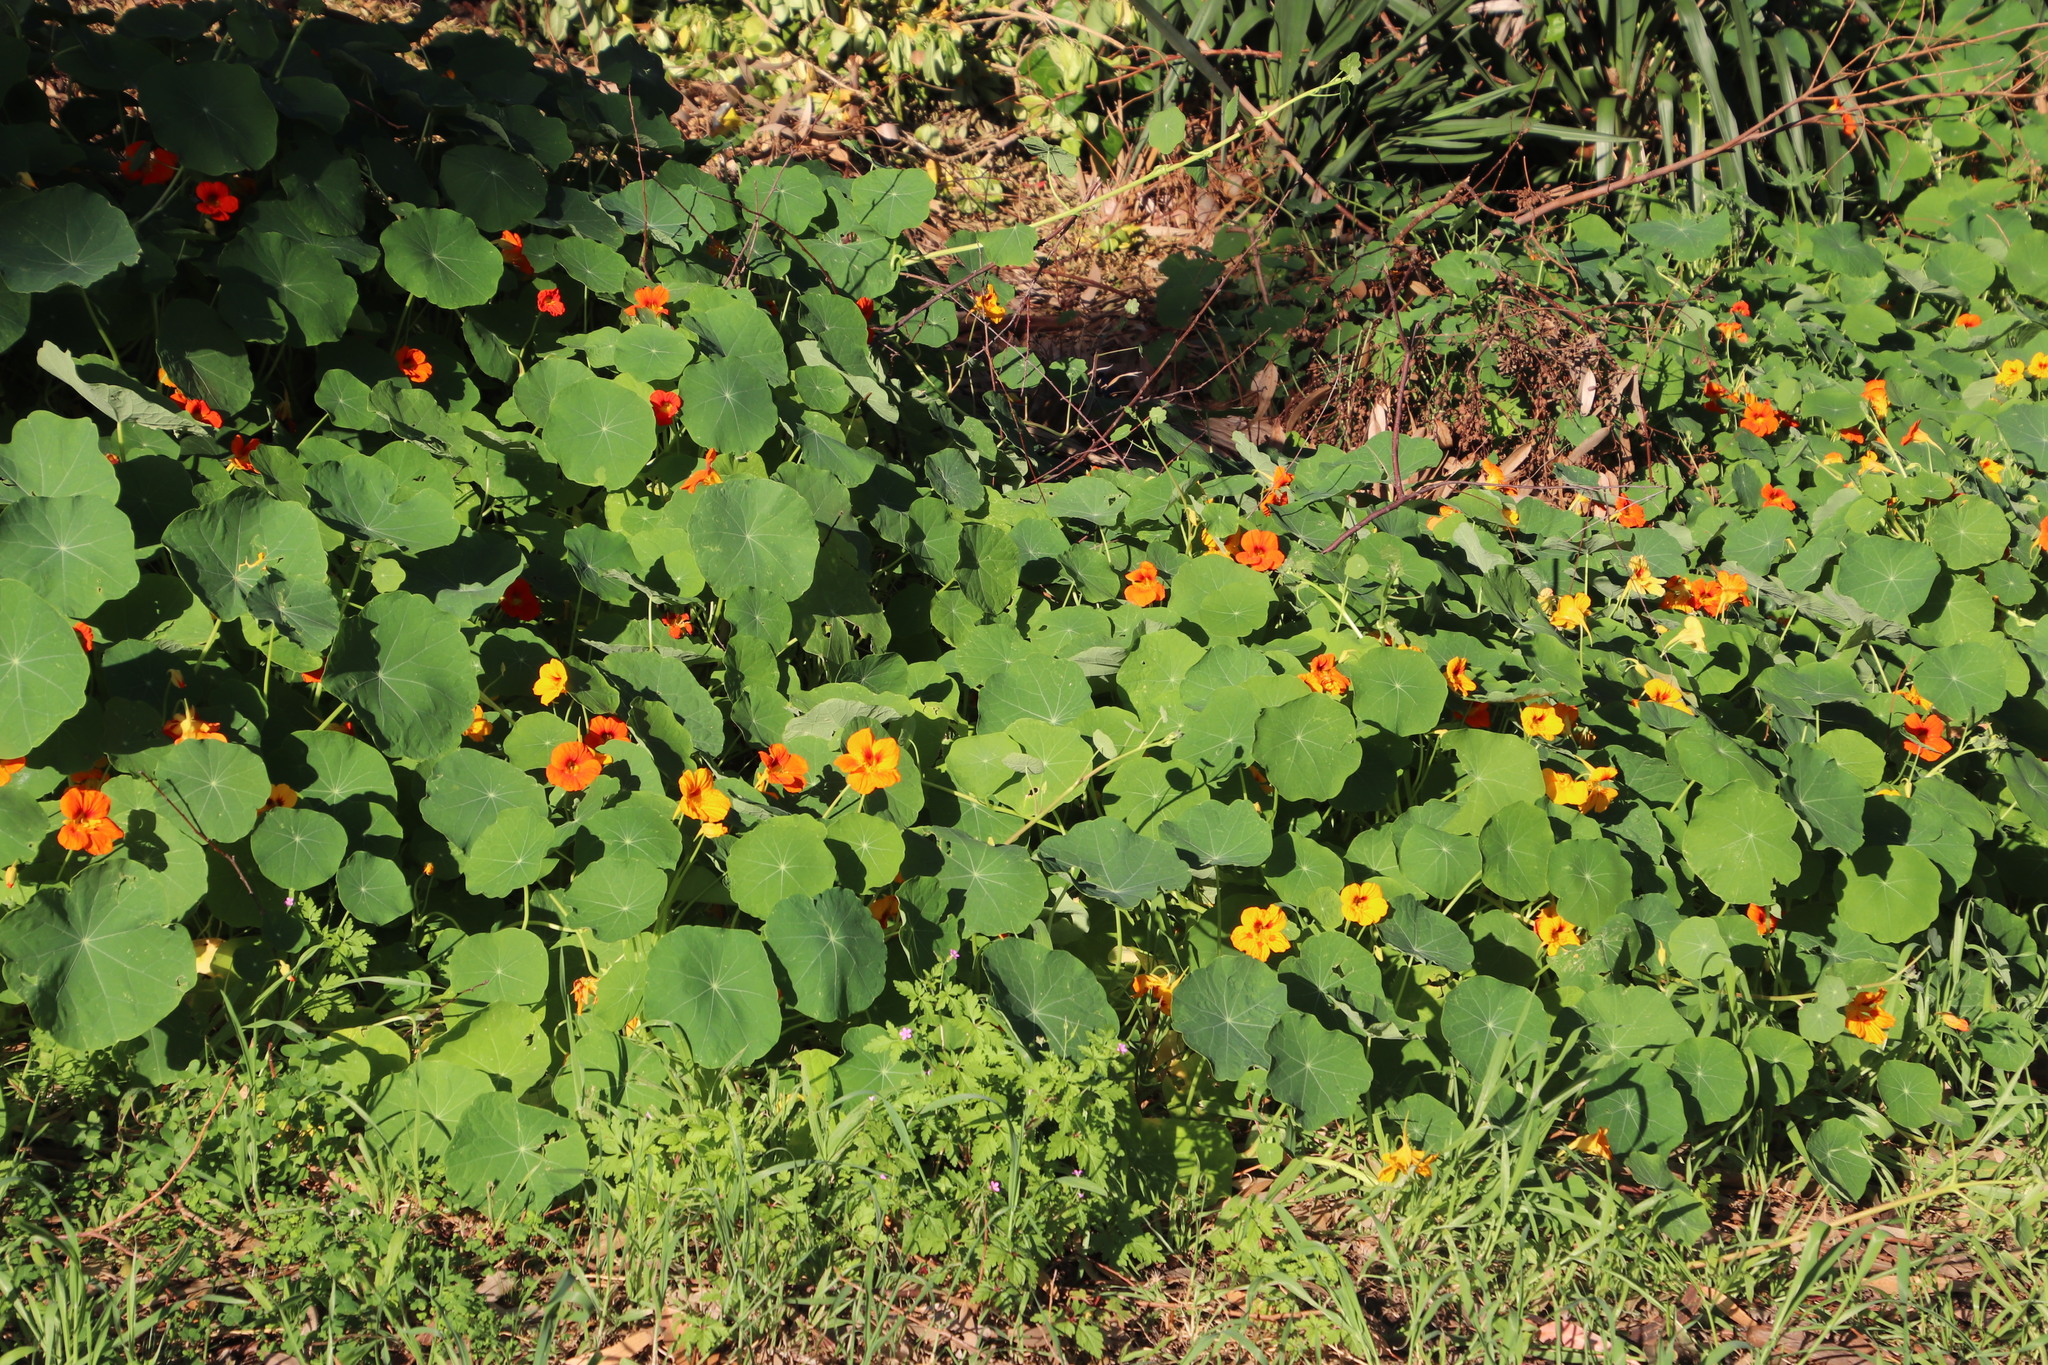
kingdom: Plantae
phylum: Tracheophyta
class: Magnoliopsida
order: Brassicales
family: Tropaeolaceae
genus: Tropaeolum
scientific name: Tropaeolum majus
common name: Nasturtium
